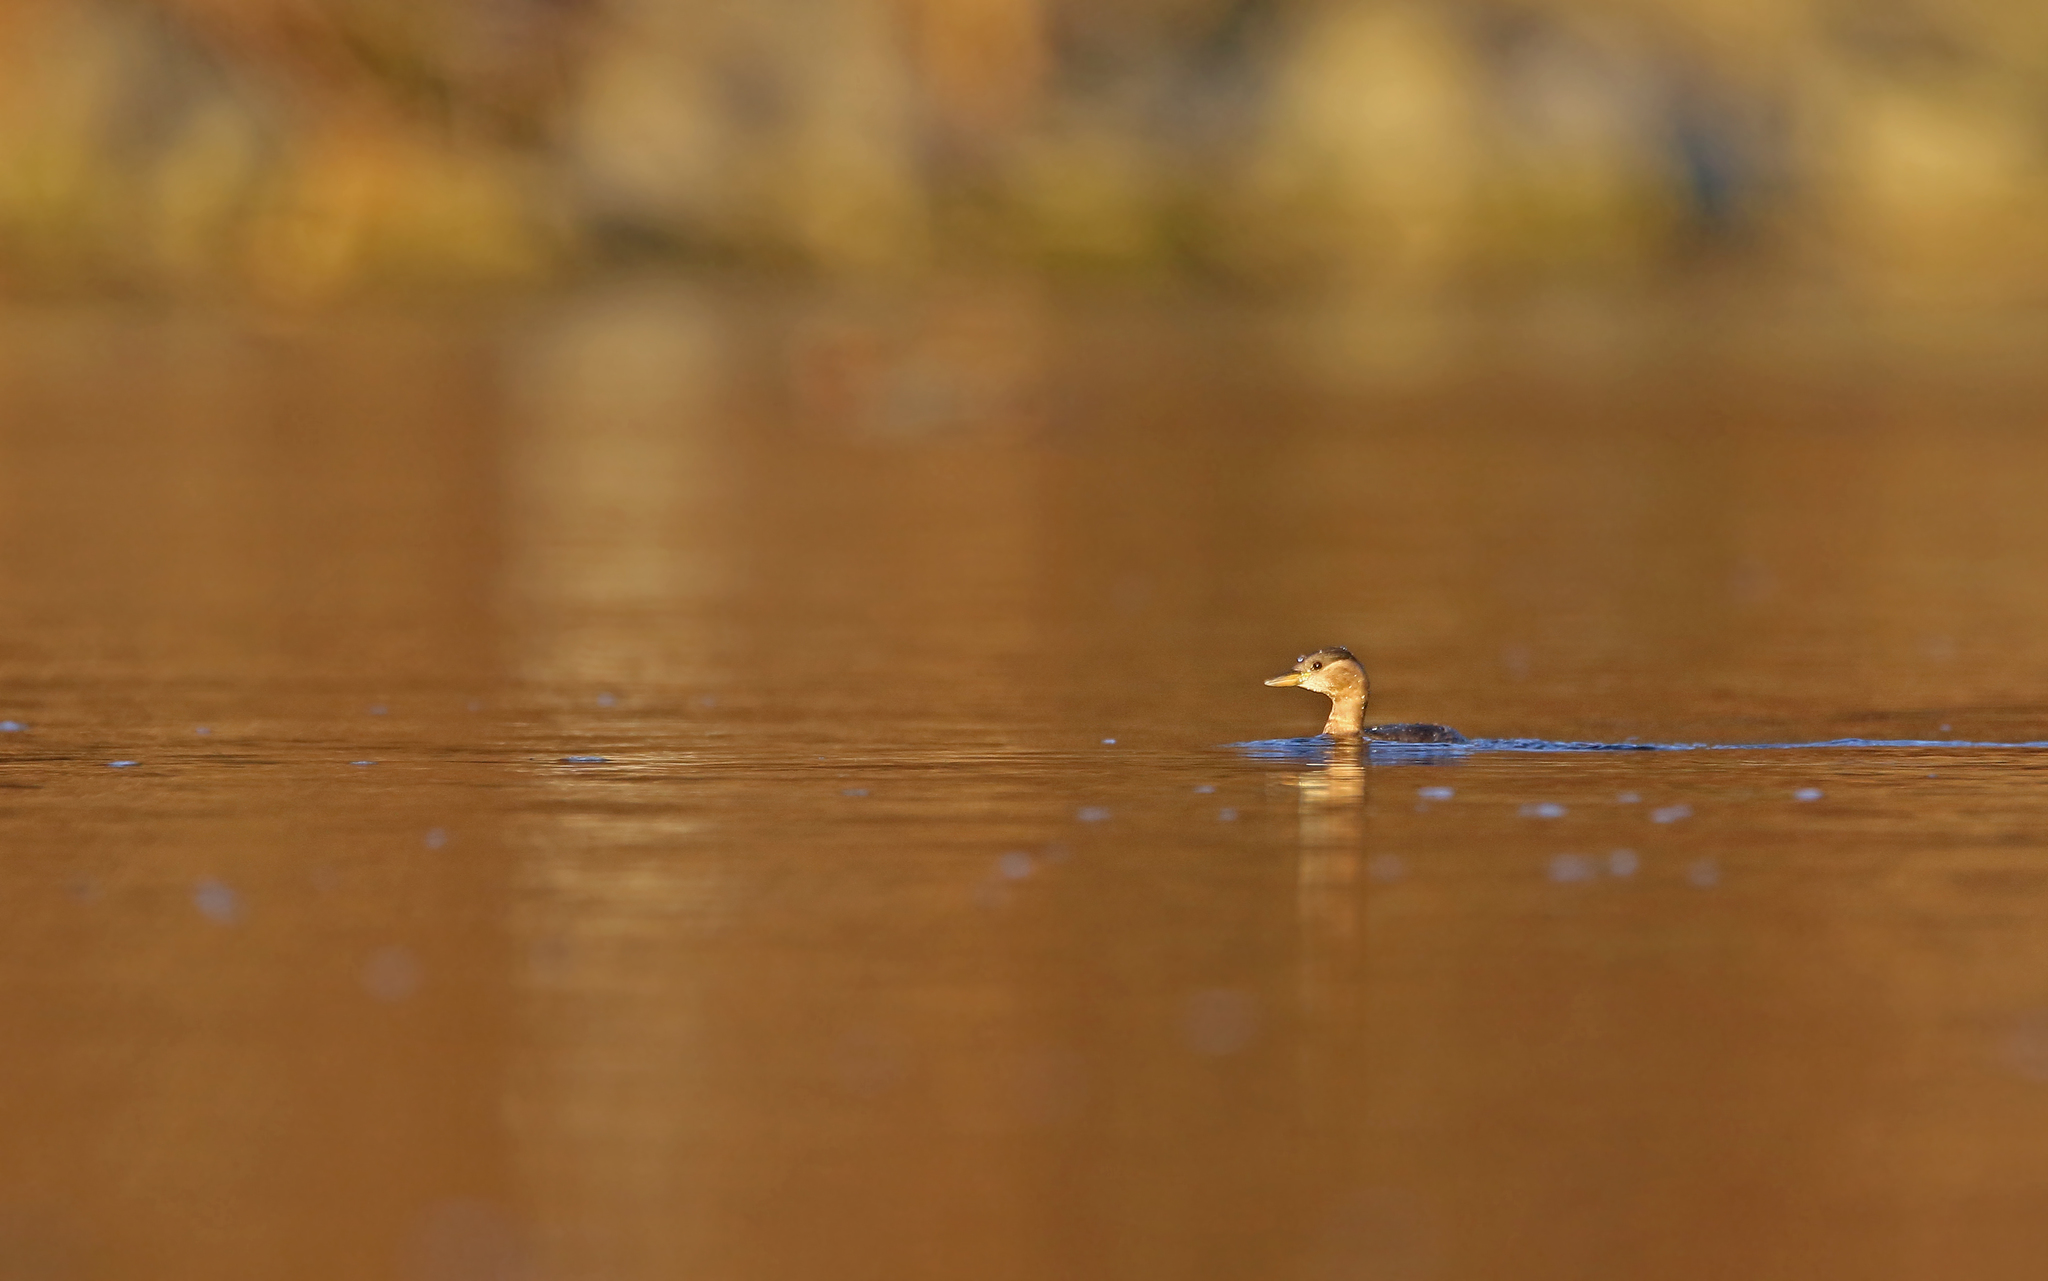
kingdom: Animalia
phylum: Chordata
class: Aves
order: Podicipediformes
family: Podicipedidae
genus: Tachybaptus
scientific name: Tachybaptus ruficollis
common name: Little grebe
